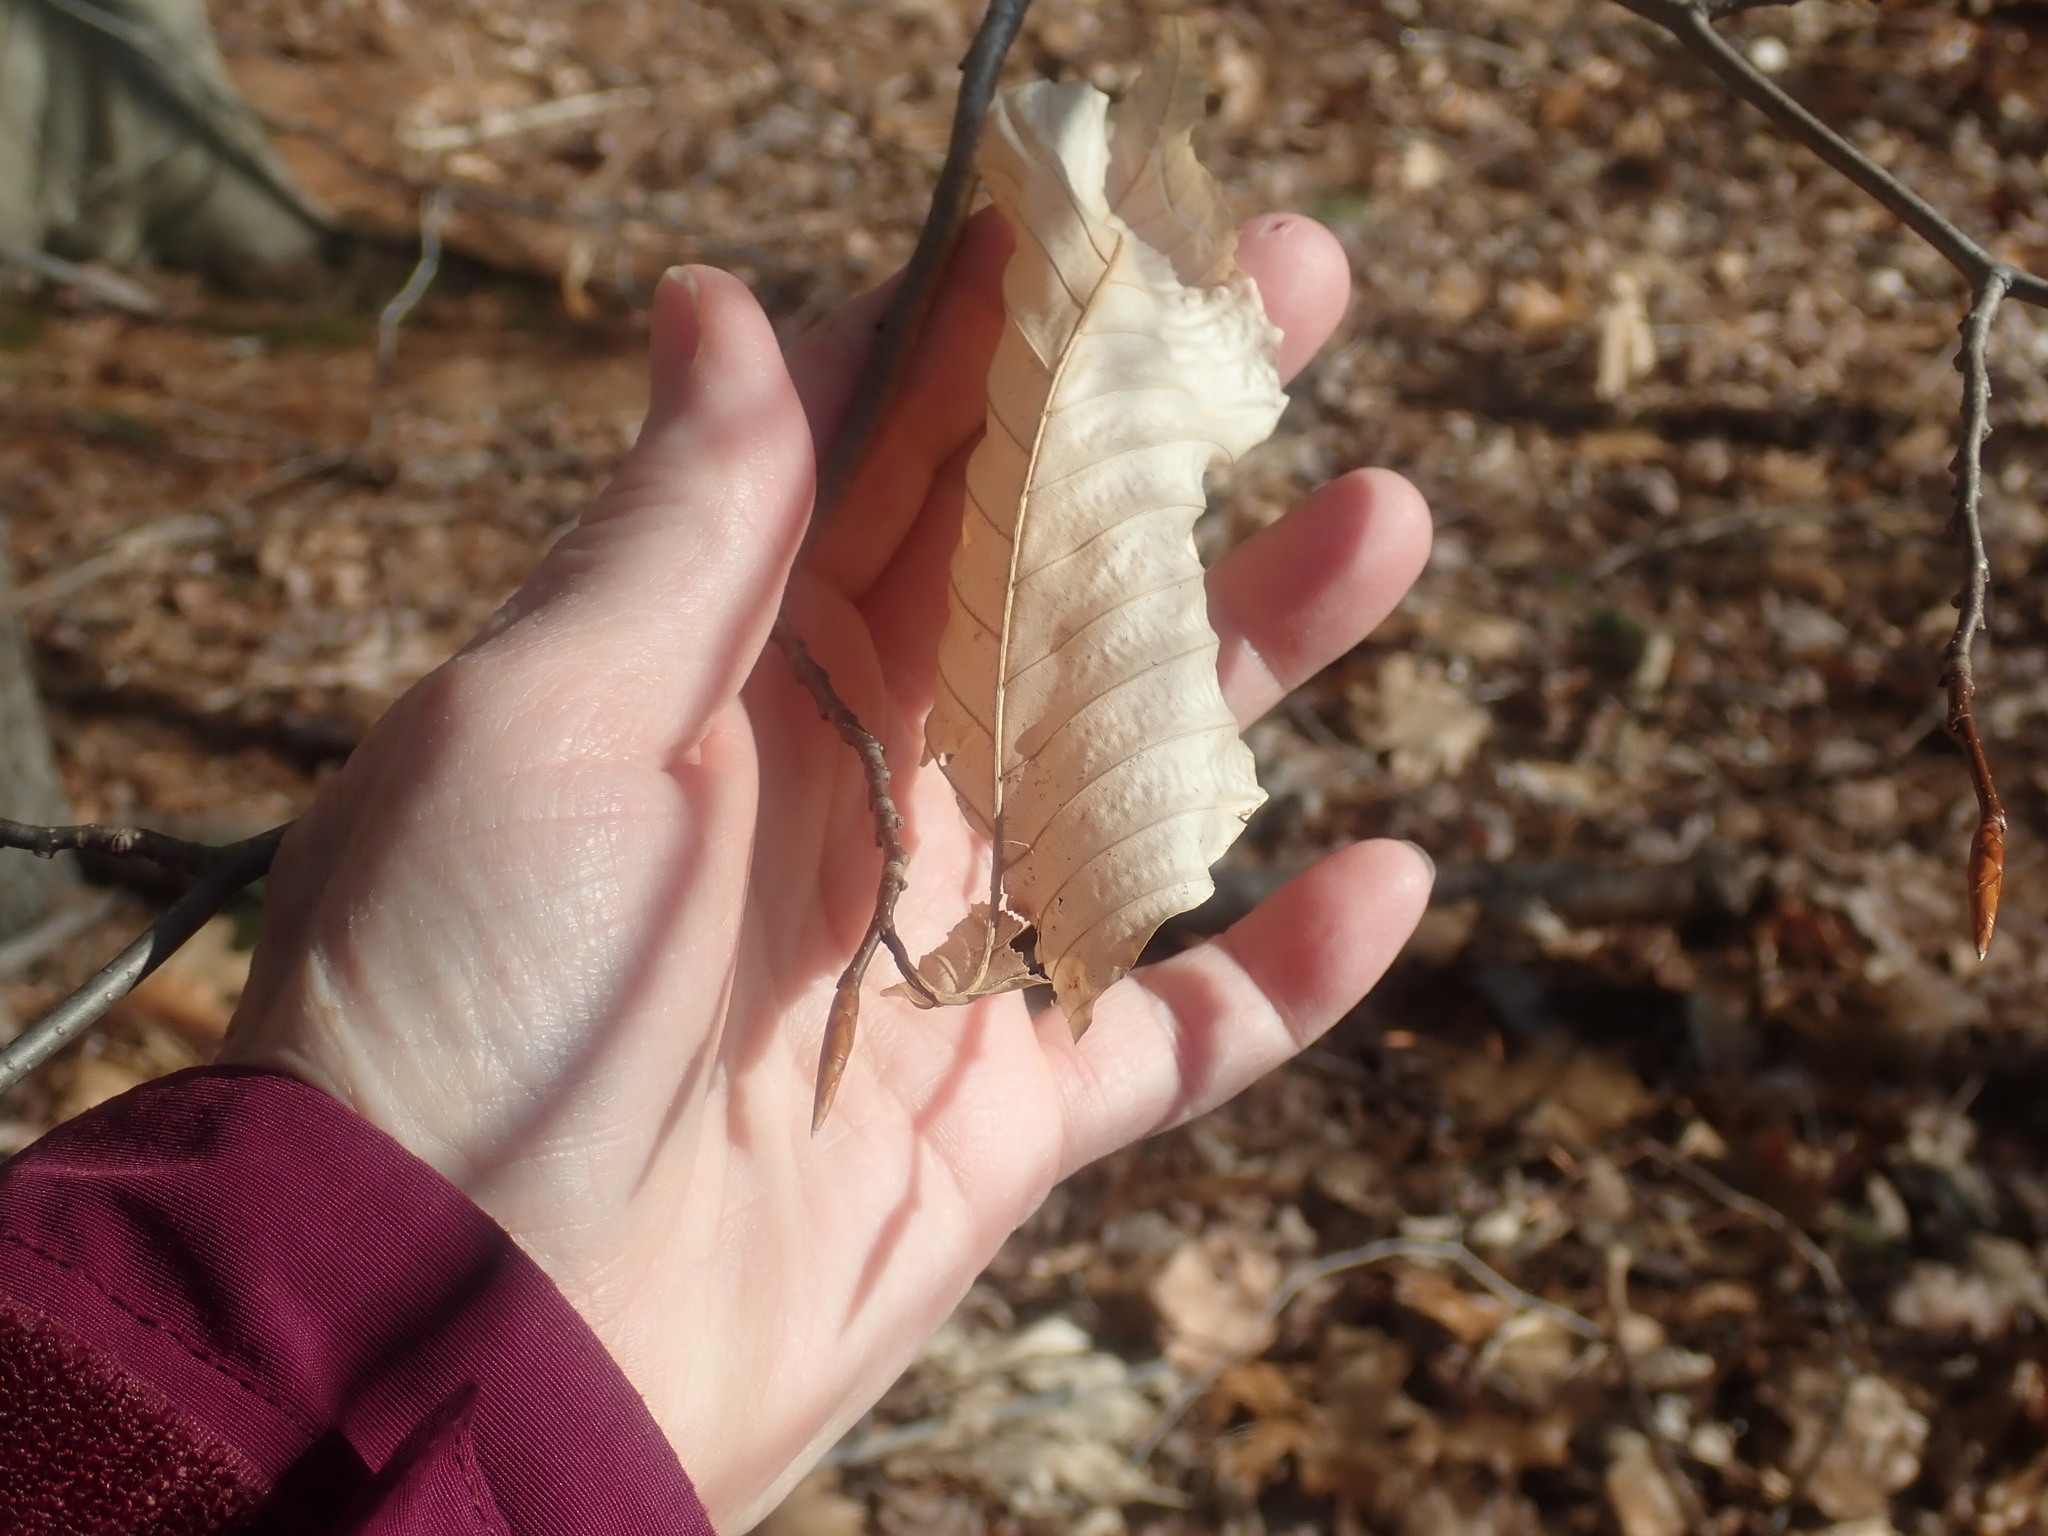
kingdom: Plantae
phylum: Tracheophyta
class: Magnoliopsida
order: Fagales
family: Fagaceae
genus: Fagus
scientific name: Fagus grandifolia
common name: American beech
